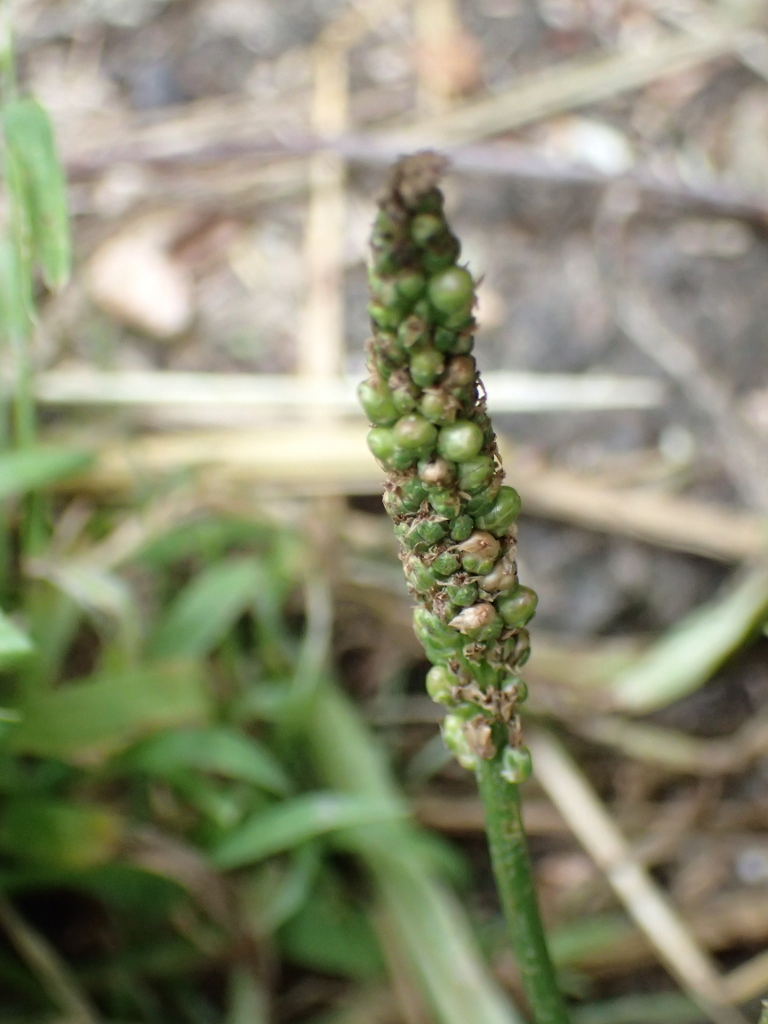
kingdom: Plantae
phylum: Tracheophyta
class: Magnoliopsida
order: Lamiales
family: Plantaginaceae
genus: Plantago
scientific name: Plantago major
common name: Common plantain
